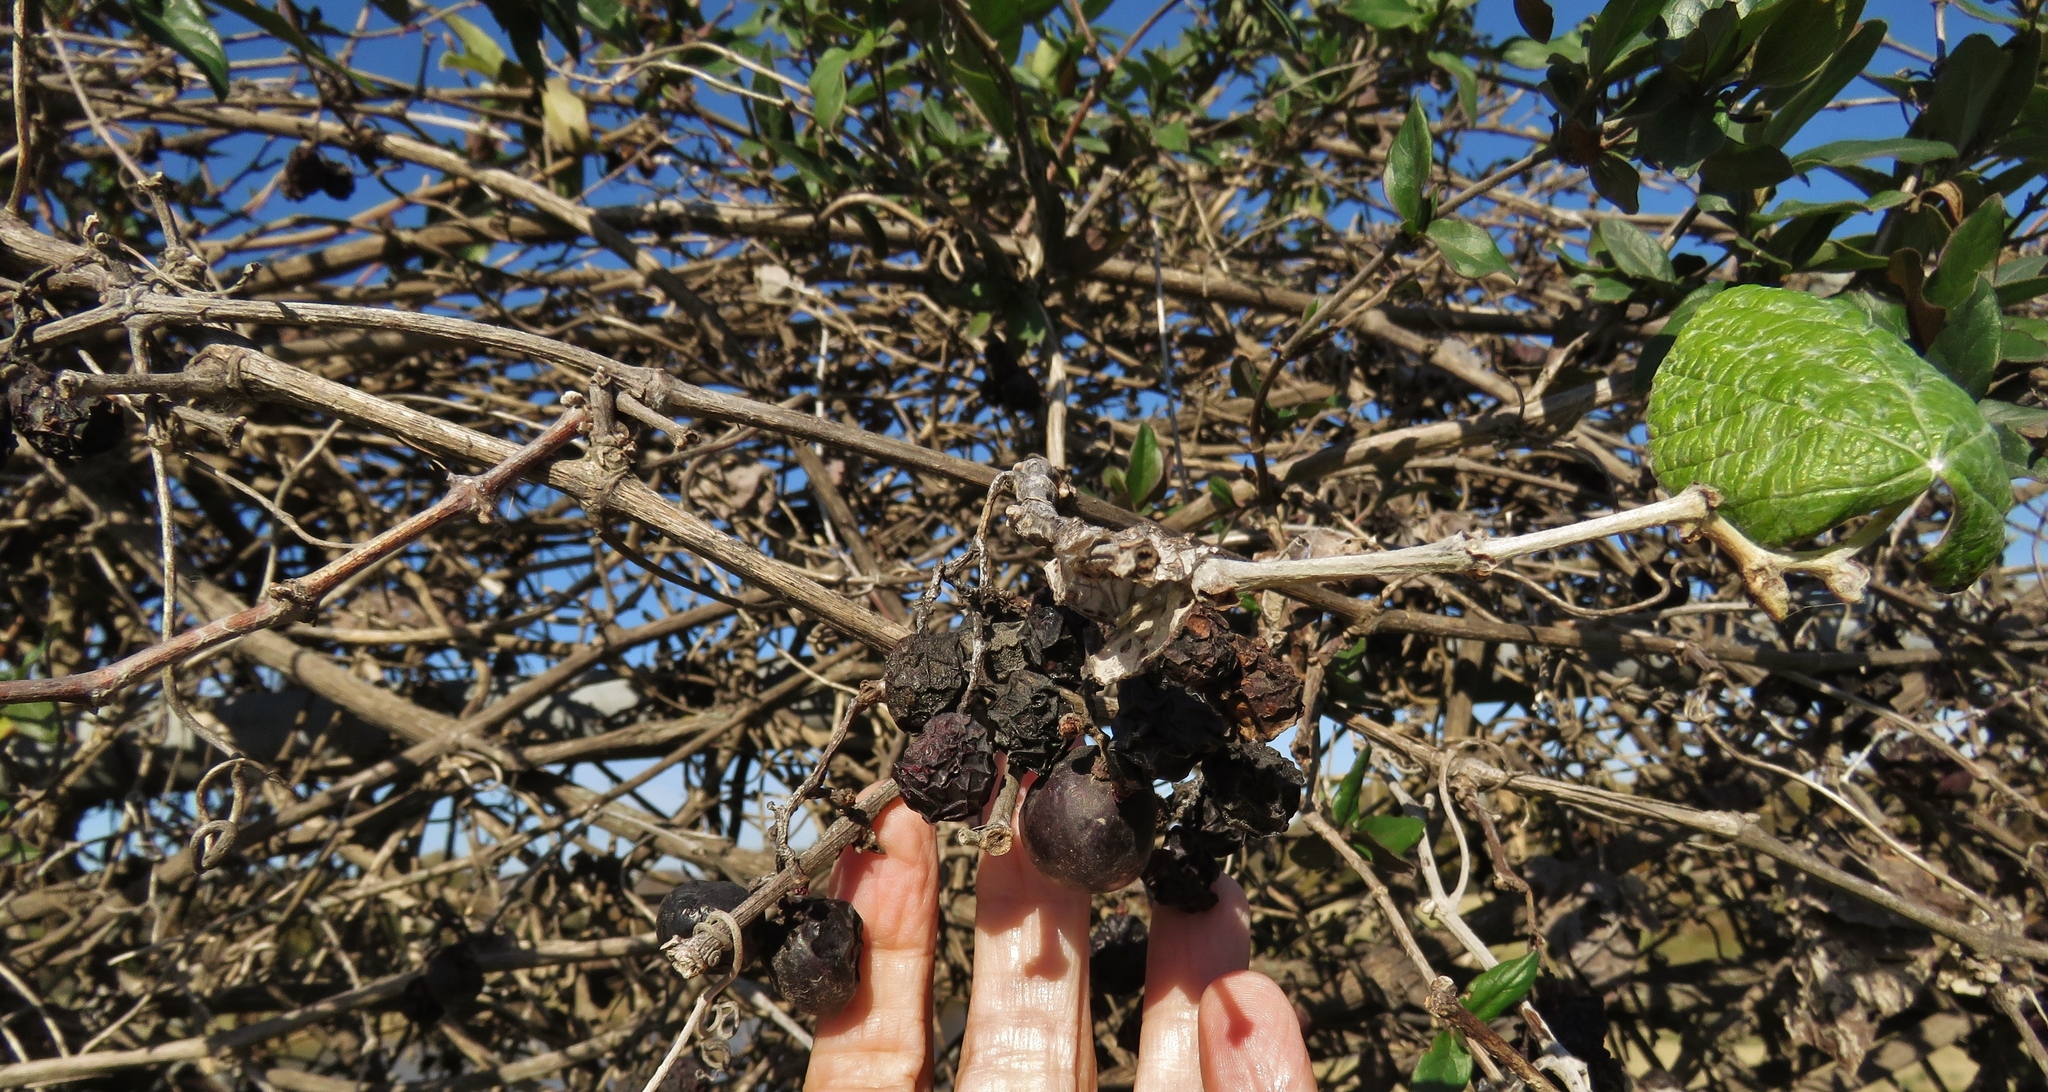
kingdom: Plantae
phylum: Tracheophyta
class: Magnoliopsida
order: Vitales
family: Vitaceae
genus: Vitis
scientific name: Vitis mustangensis
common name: Mustang grape
